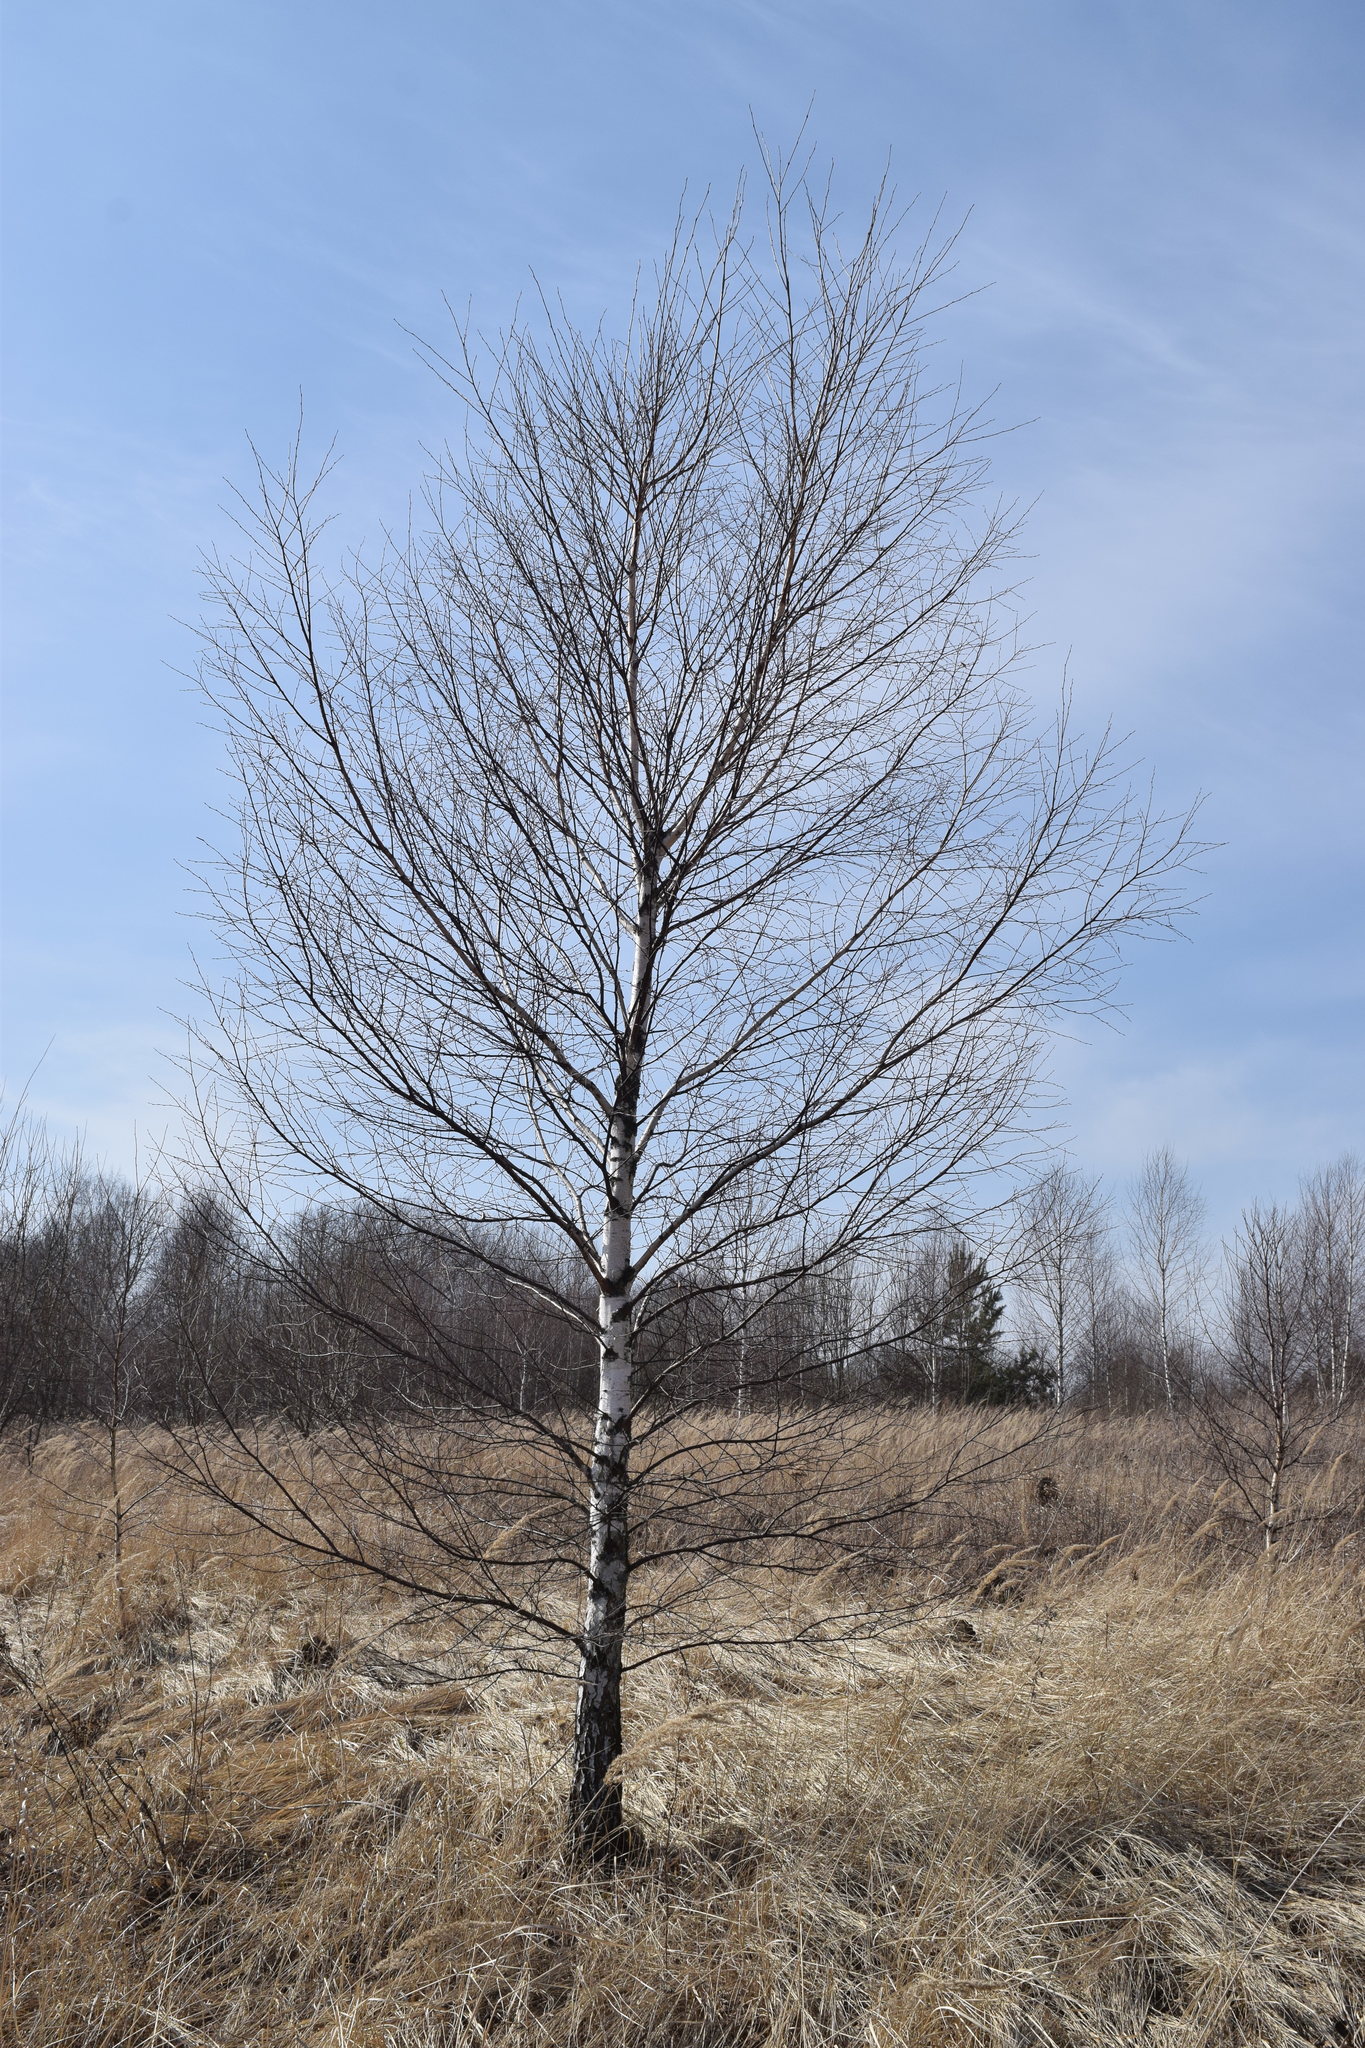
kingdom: Plantae
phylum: Tracheophyta
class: Magnoliopsida
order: Fagales
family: Betulaceae
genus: Betula
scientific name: Betula pendula
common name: Silver birch
